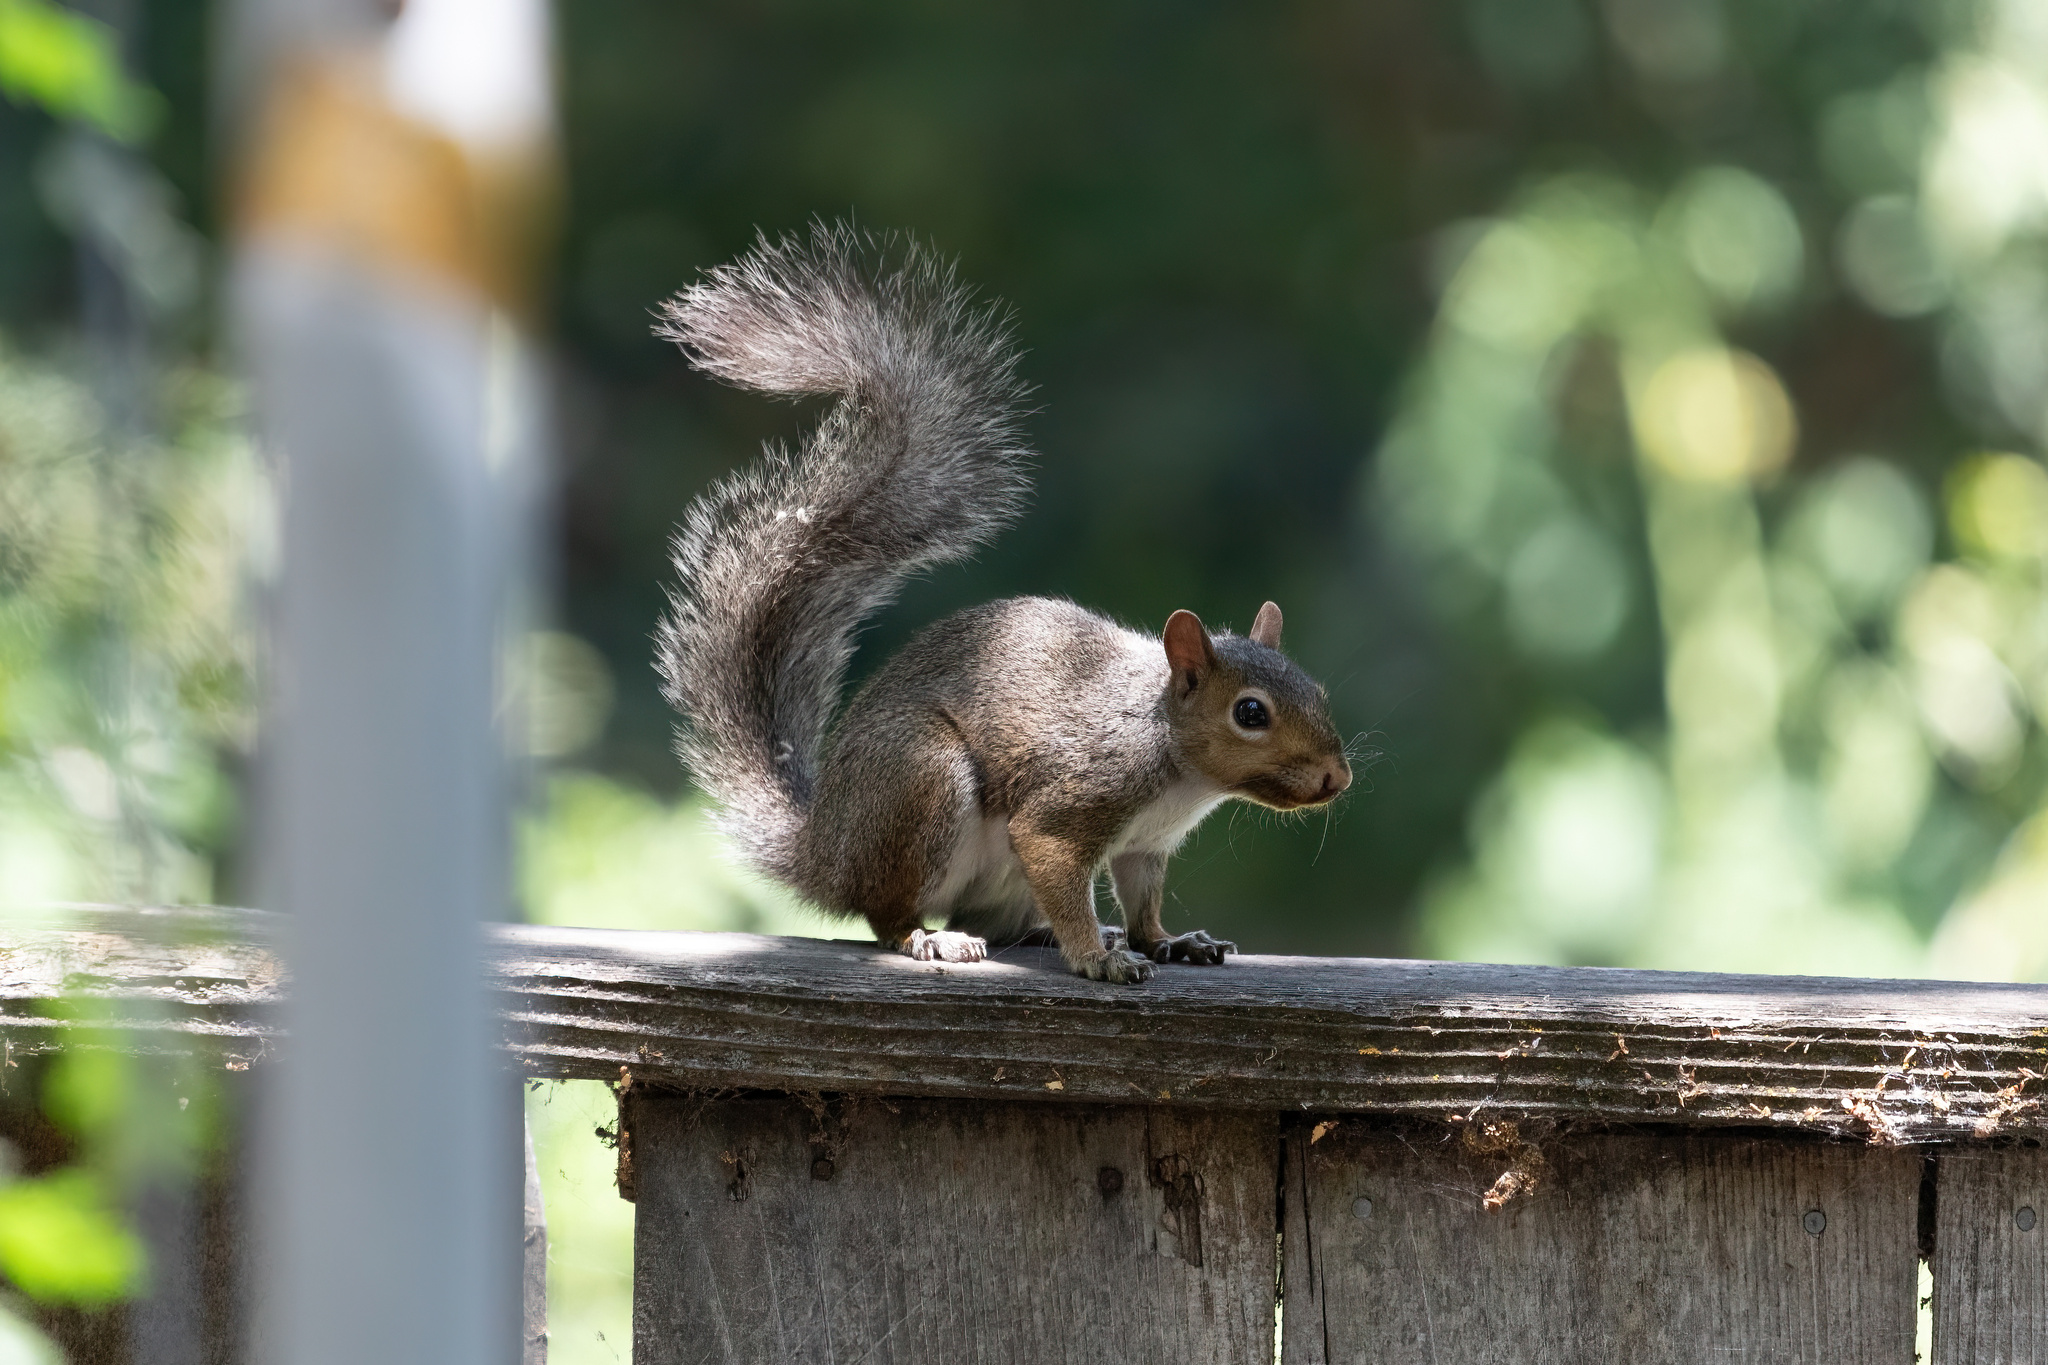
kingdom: Animalia
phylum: Chordata
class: Mammalia
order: Rodentia
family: Sciuridae
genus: Sciurus
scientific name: Sciurus carolinensis
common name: Eastern gray squirrel
